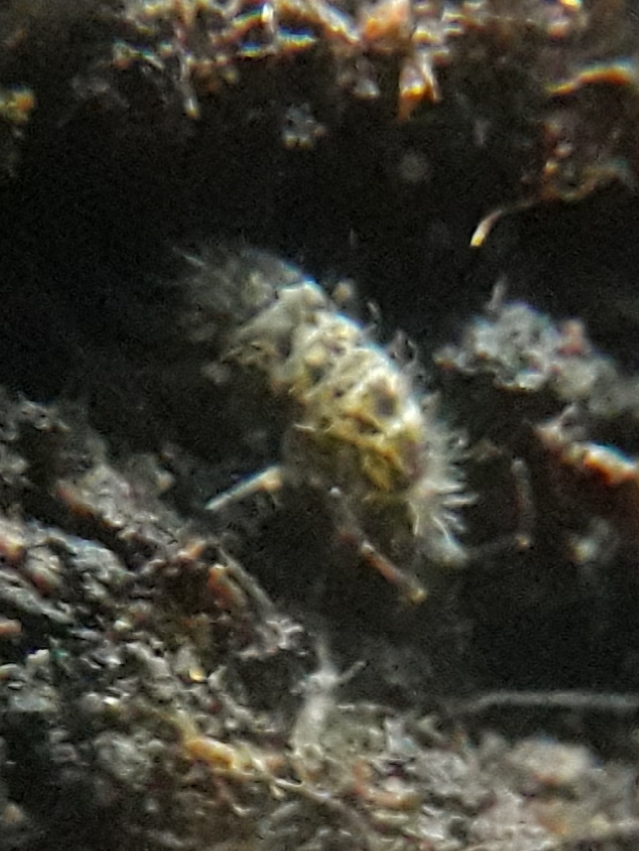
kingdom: Animalia
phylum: Arthropoda
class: Collembola
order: Entomobryomorpha
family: Orchesellidae
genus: Orchesella
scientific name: Orchesella villosa
